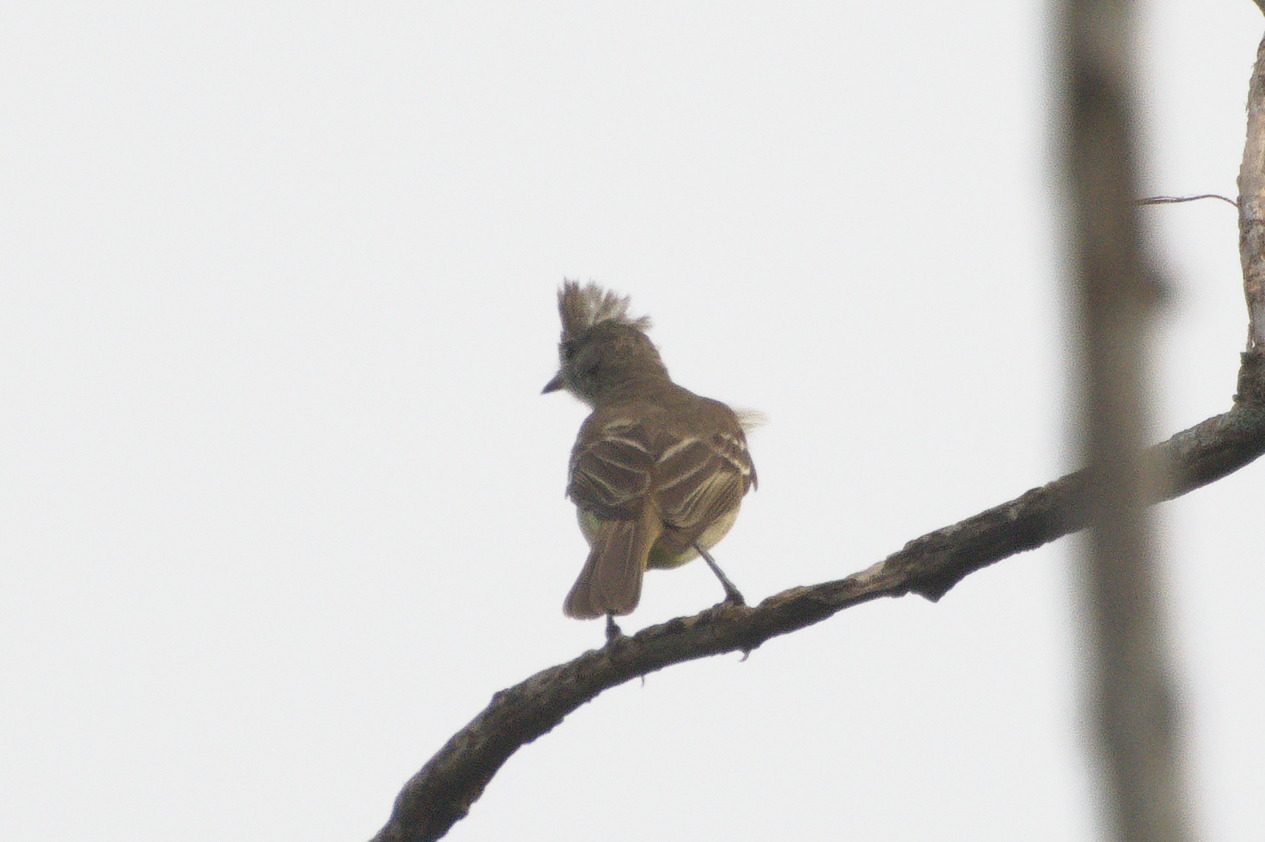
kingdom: Animalia
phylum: Chordata
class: Aves
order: Passeriformes
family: Tyrannidae
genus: Elaenia
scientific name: Elaenia flavogaster
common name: Yellow-bellied elaenia
